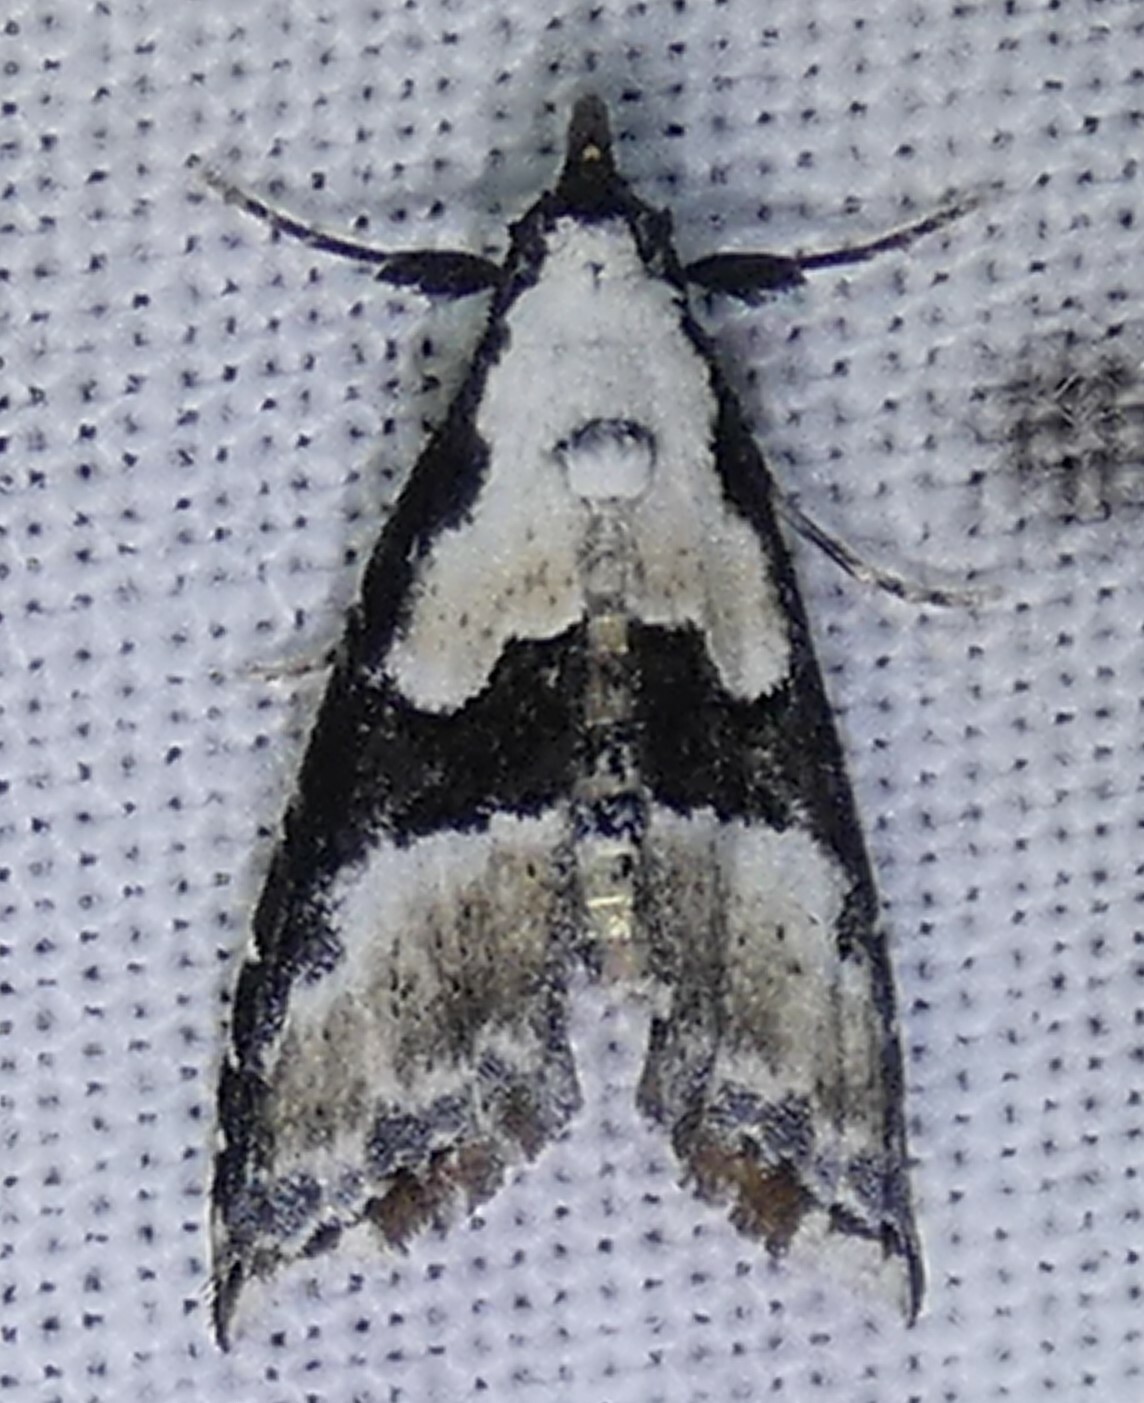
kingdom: Animalia
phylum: Arthropoda
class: Insecta
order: Lepidoptera
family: Noctuidae
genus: Nigetia
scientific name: Nigetia formosalis
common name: Thin-winged owlet
